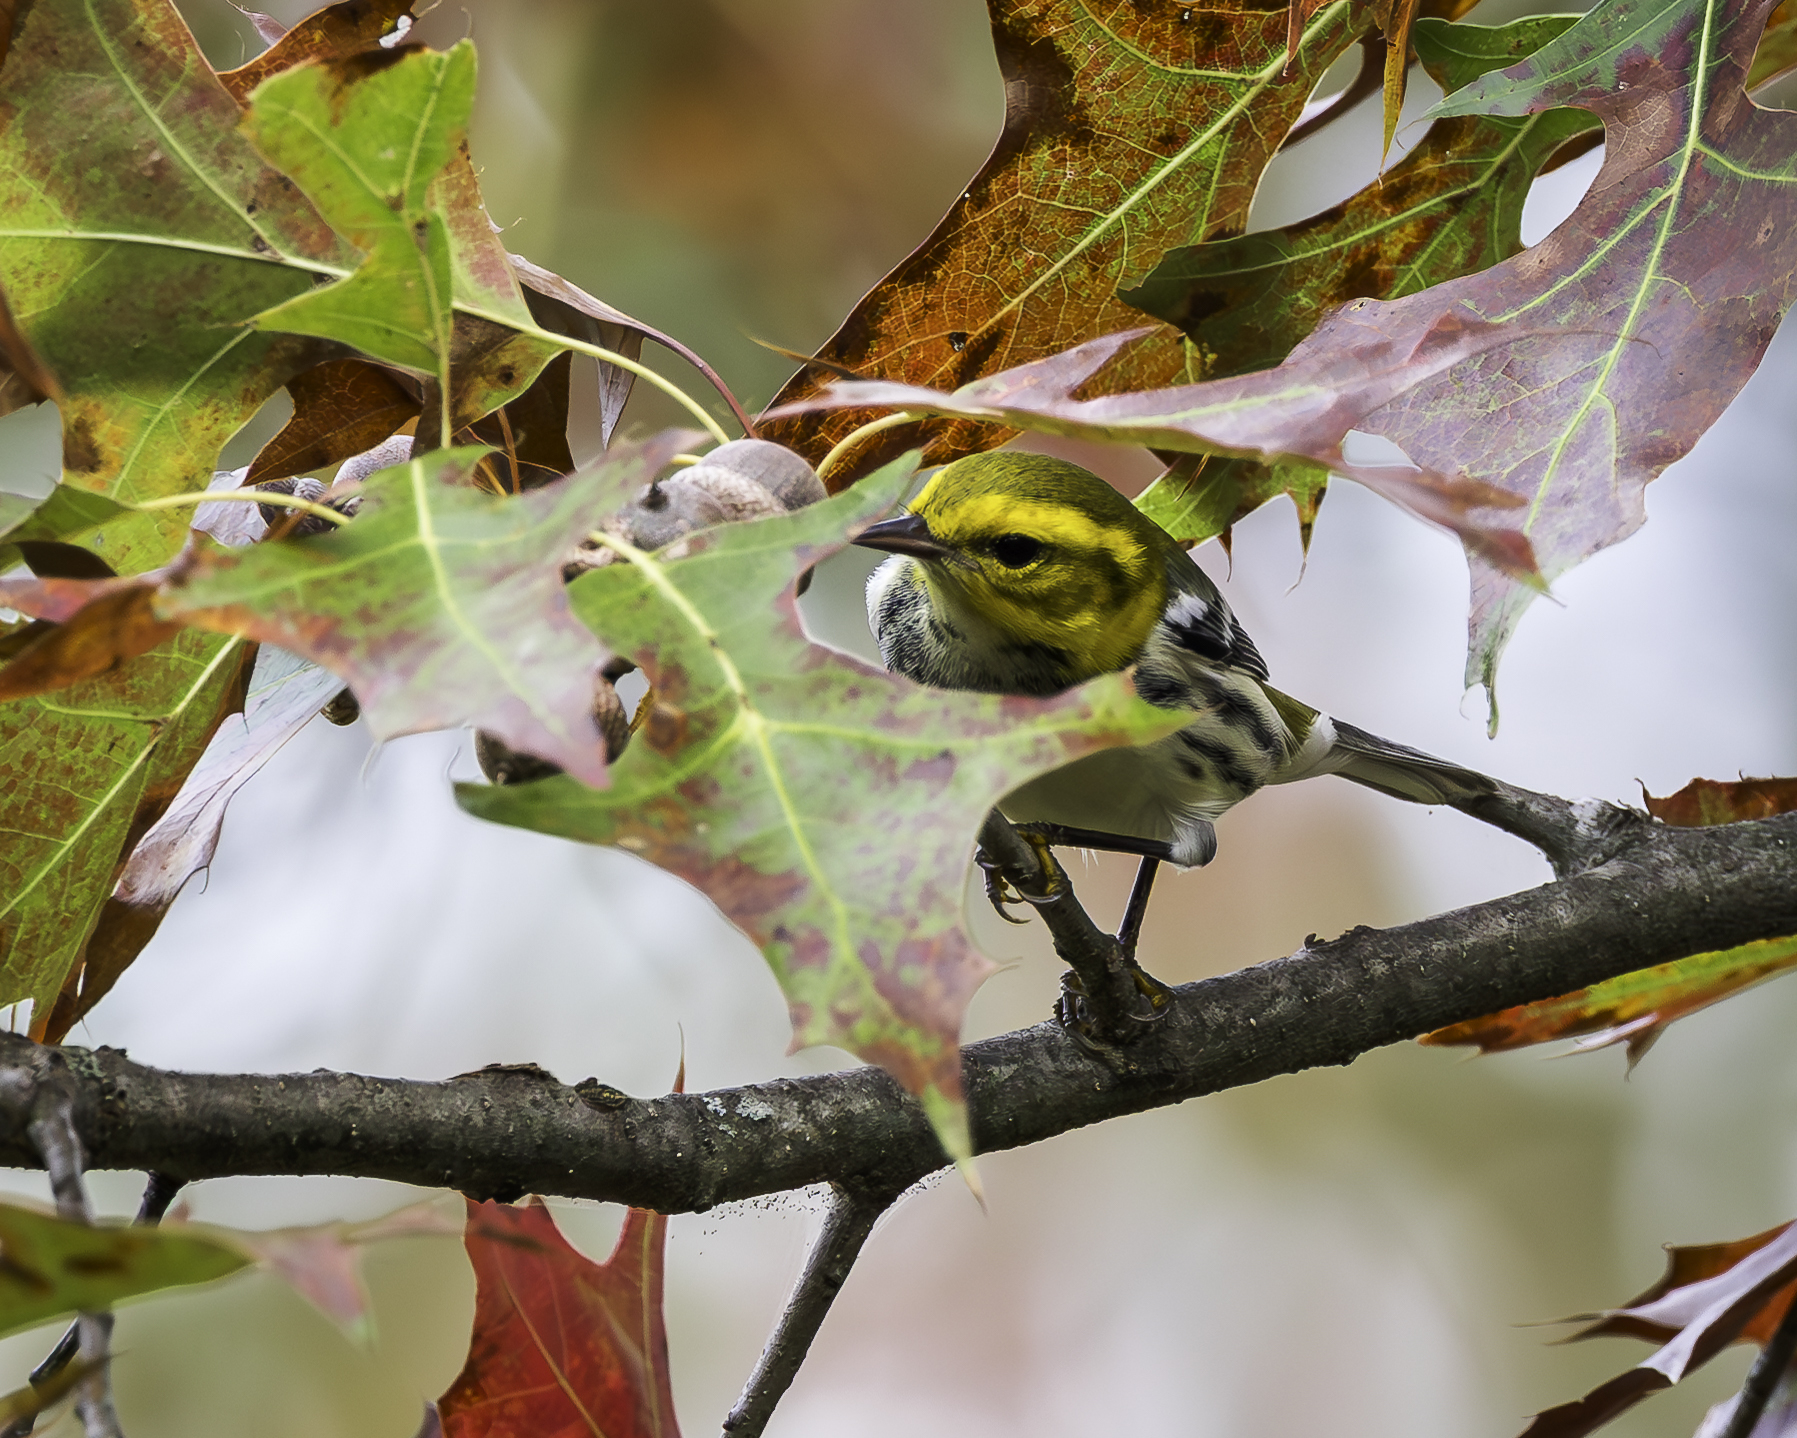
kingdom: Animalia
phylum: Chordata
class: Aves
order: Passeriformes
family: Parulidae
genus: Setophaga
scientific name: Setophaga virens
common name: Black-throated green warbler
